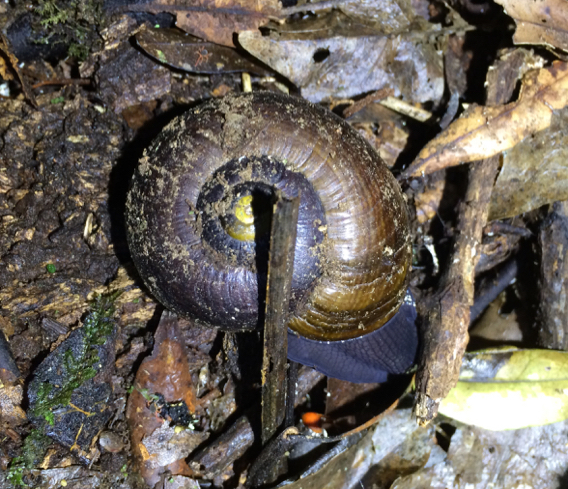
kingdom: Animalia
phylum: Mollusca
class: Gastropoda
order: Stylommatophora
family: Rhytididae
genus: Powelliphanta
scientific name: Powelliphanta traversi
